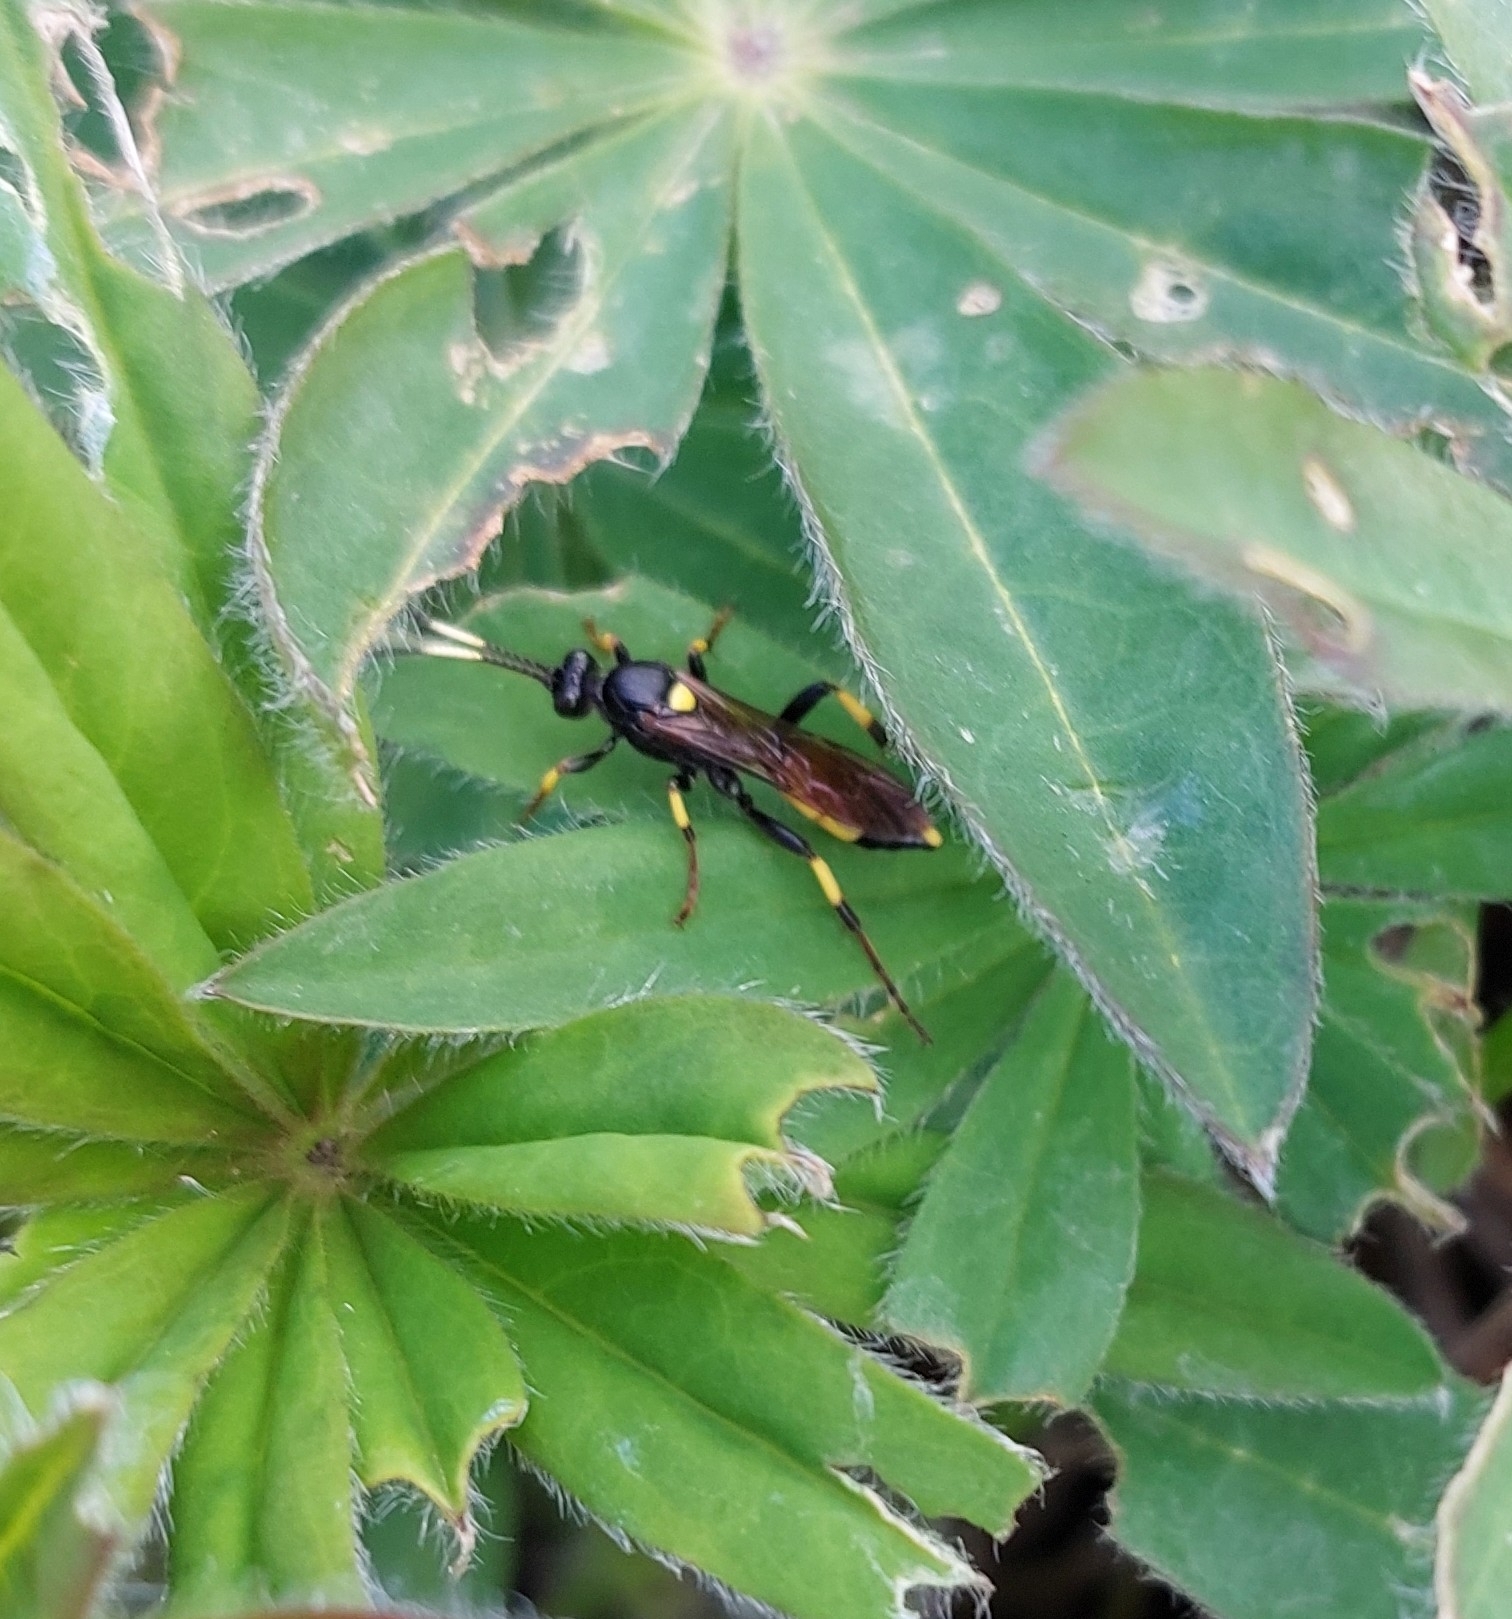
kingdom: Animalia
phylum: Arthropoda
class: Insecta
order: Hymenoptera
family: Ichneumonidae
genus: Ichneumon
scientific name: Ichneumon stramentor
